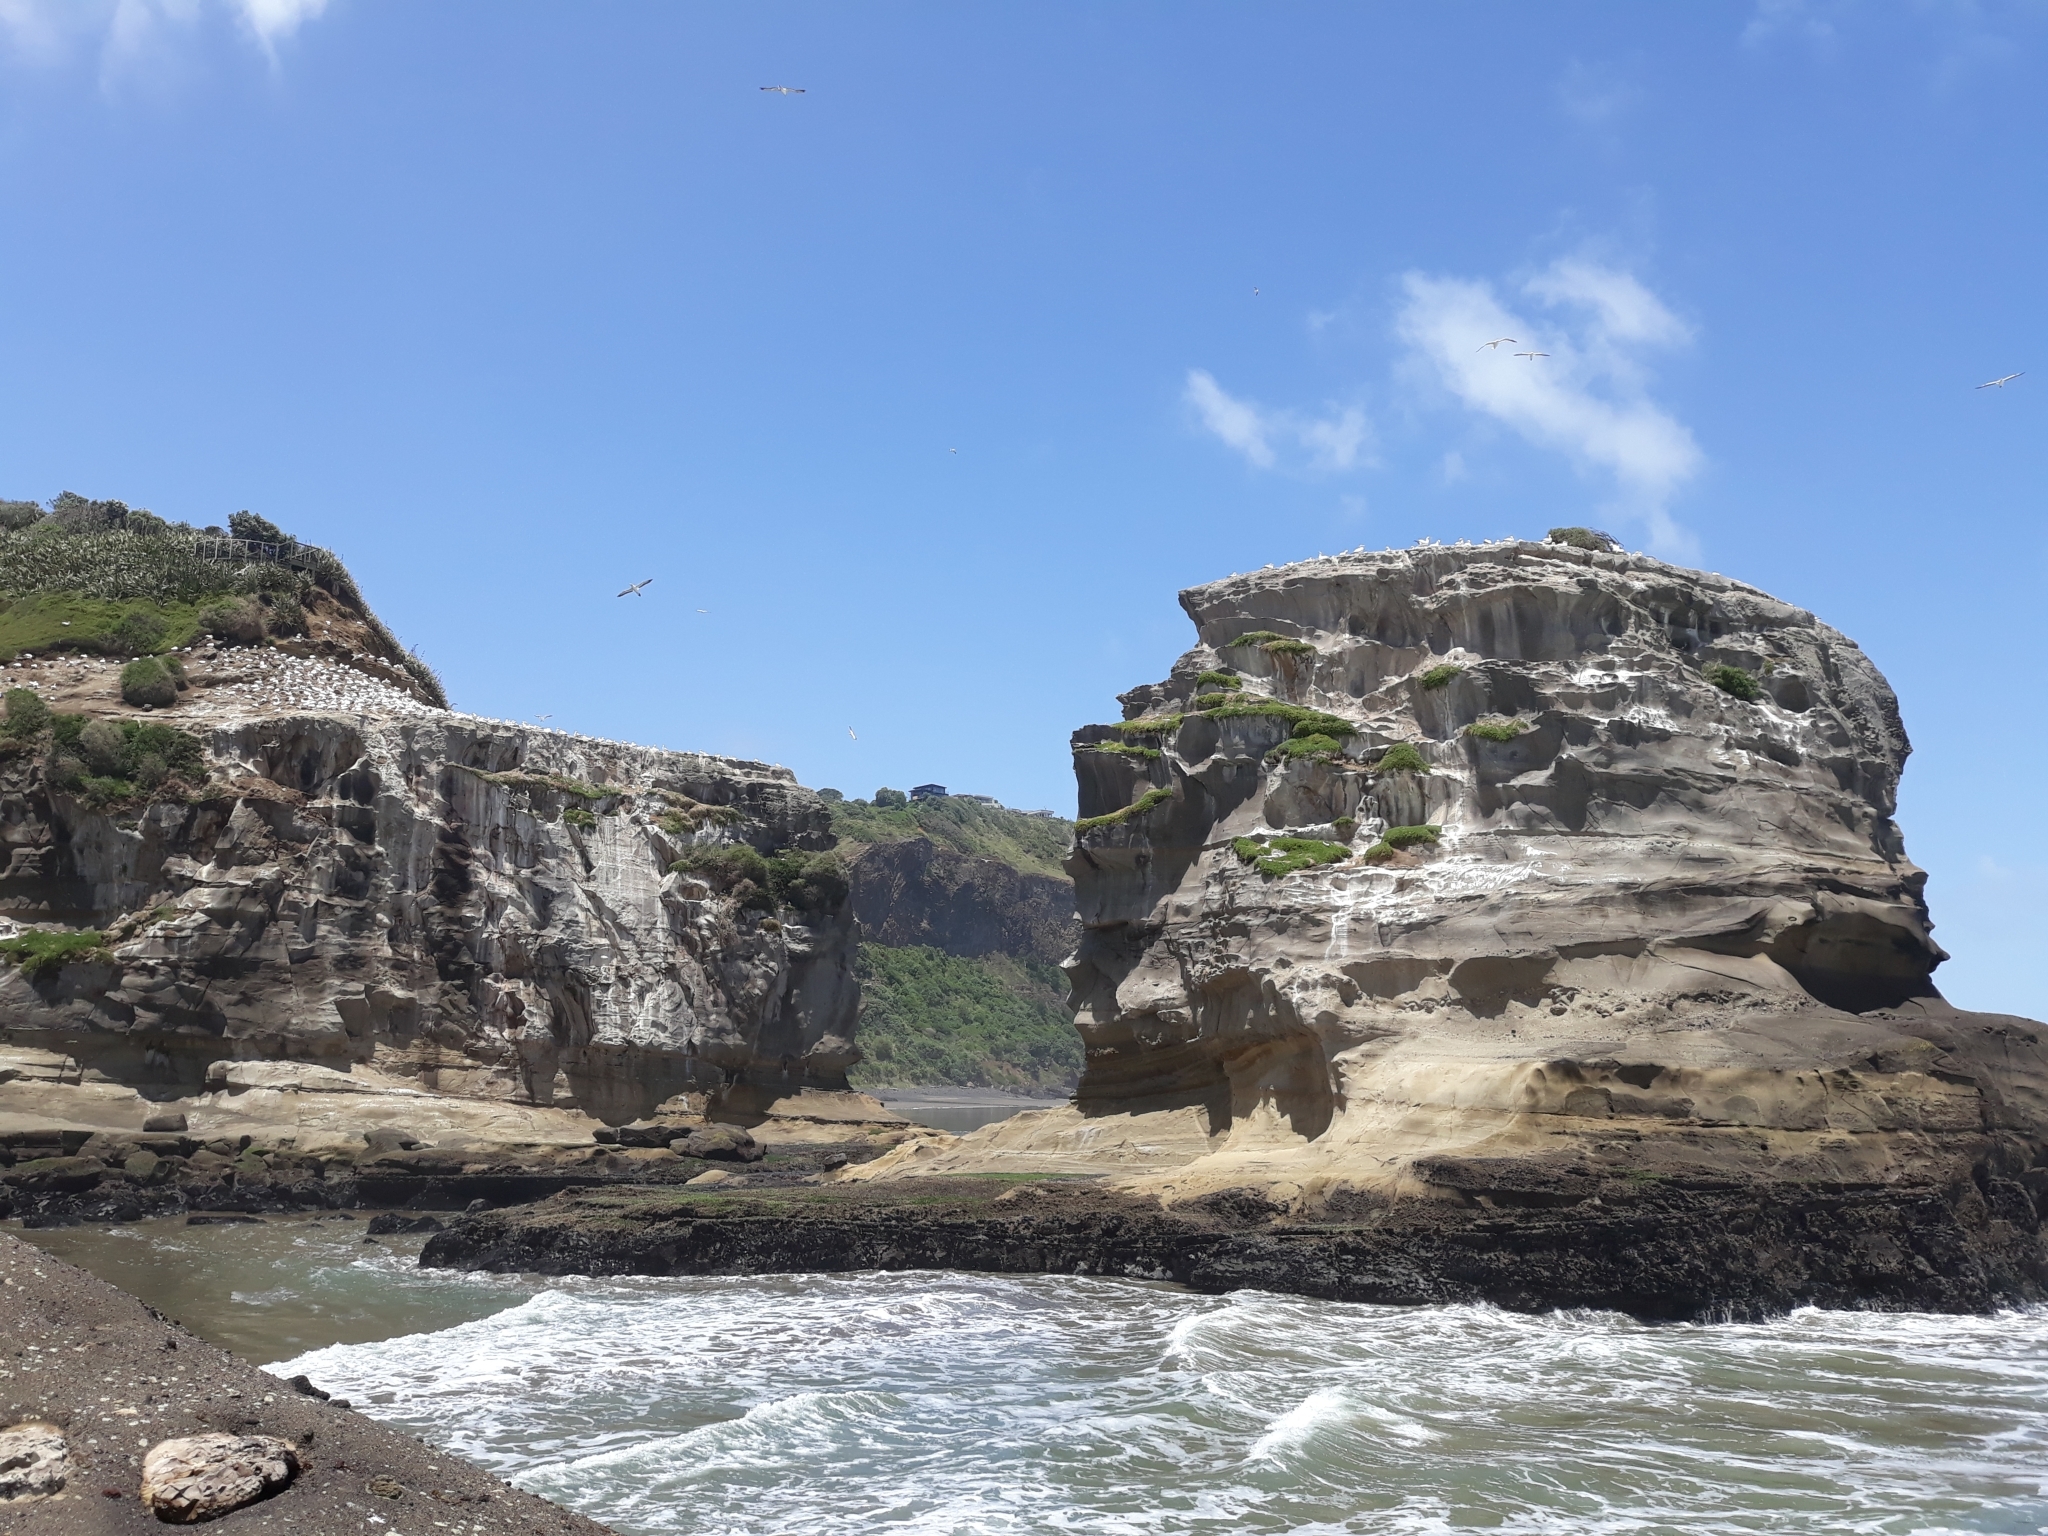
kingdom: Animalia
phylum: Chordata
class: Aves
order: Suliformes
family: Sulidae
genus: Morus
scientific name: Morus serrator
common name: Australasian gannet
